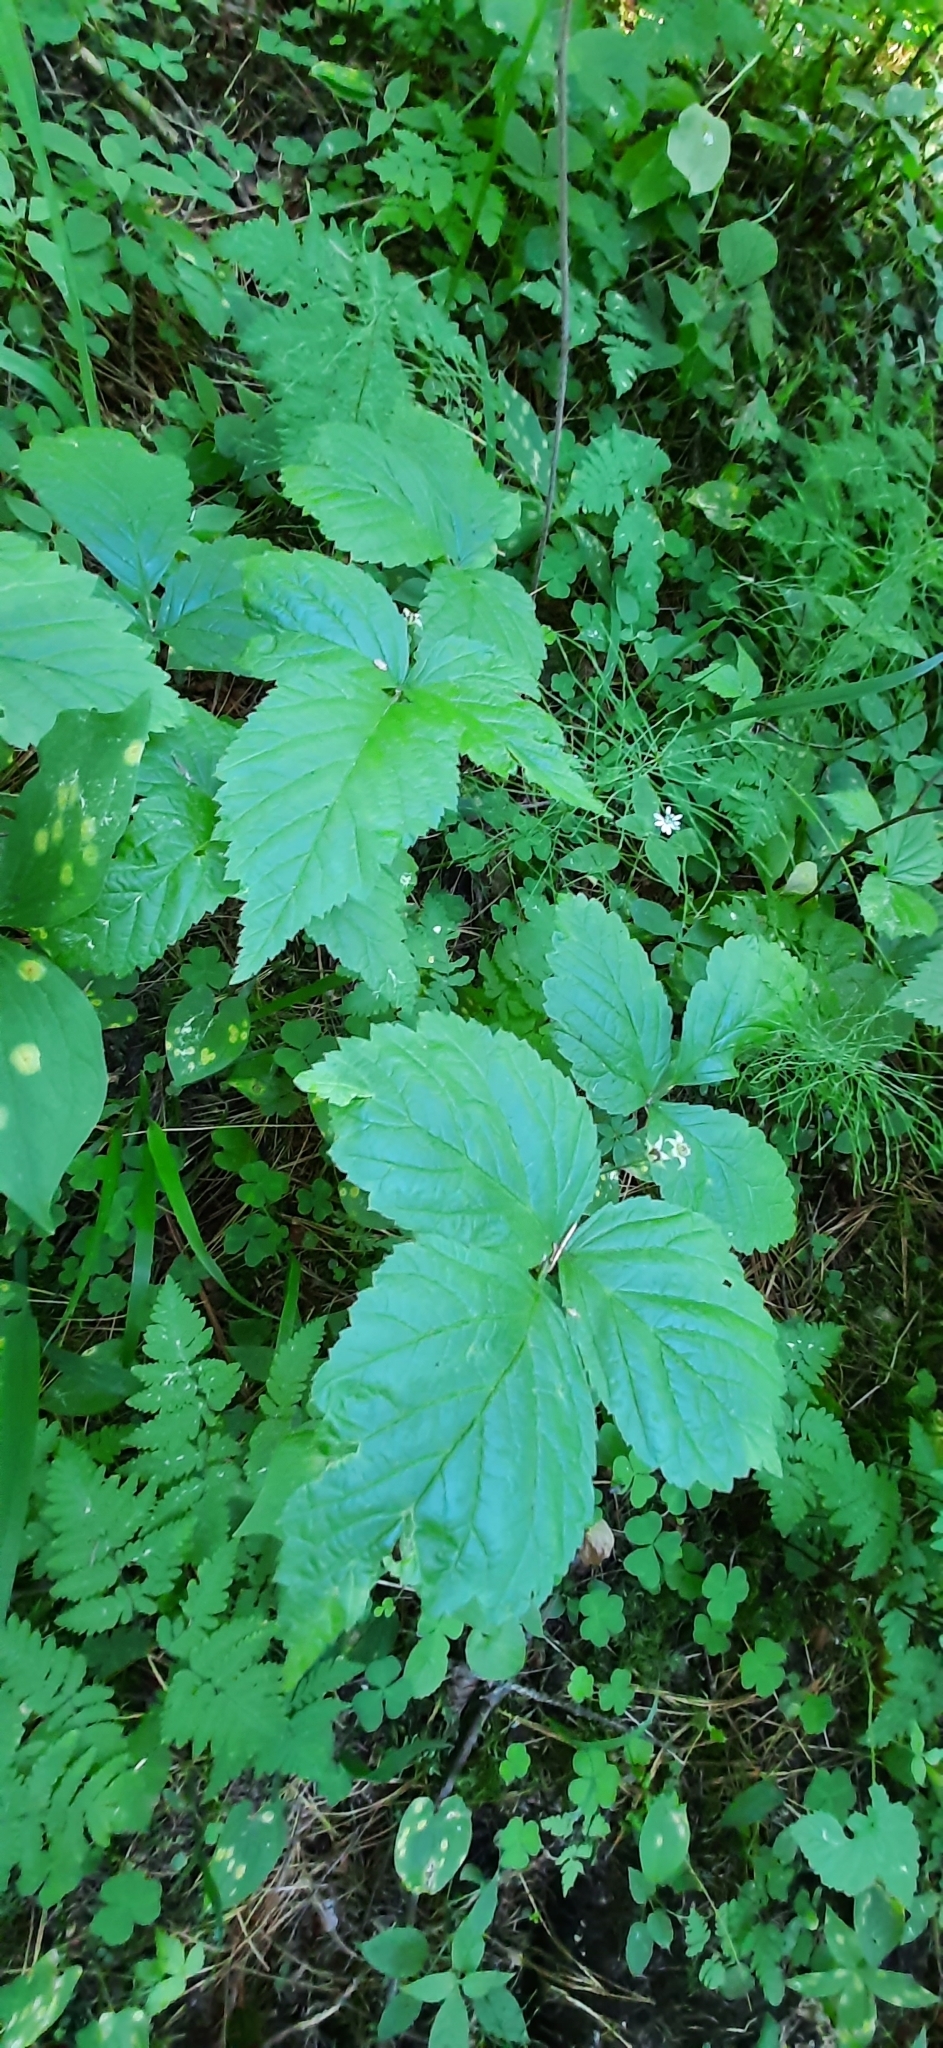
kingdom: Plantae
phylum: Tracheophyta
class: Magnoliopsida
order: Rosales
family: Rosaceae
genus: Rubus
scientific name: Rubus saxatilis
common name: Stone bramble
